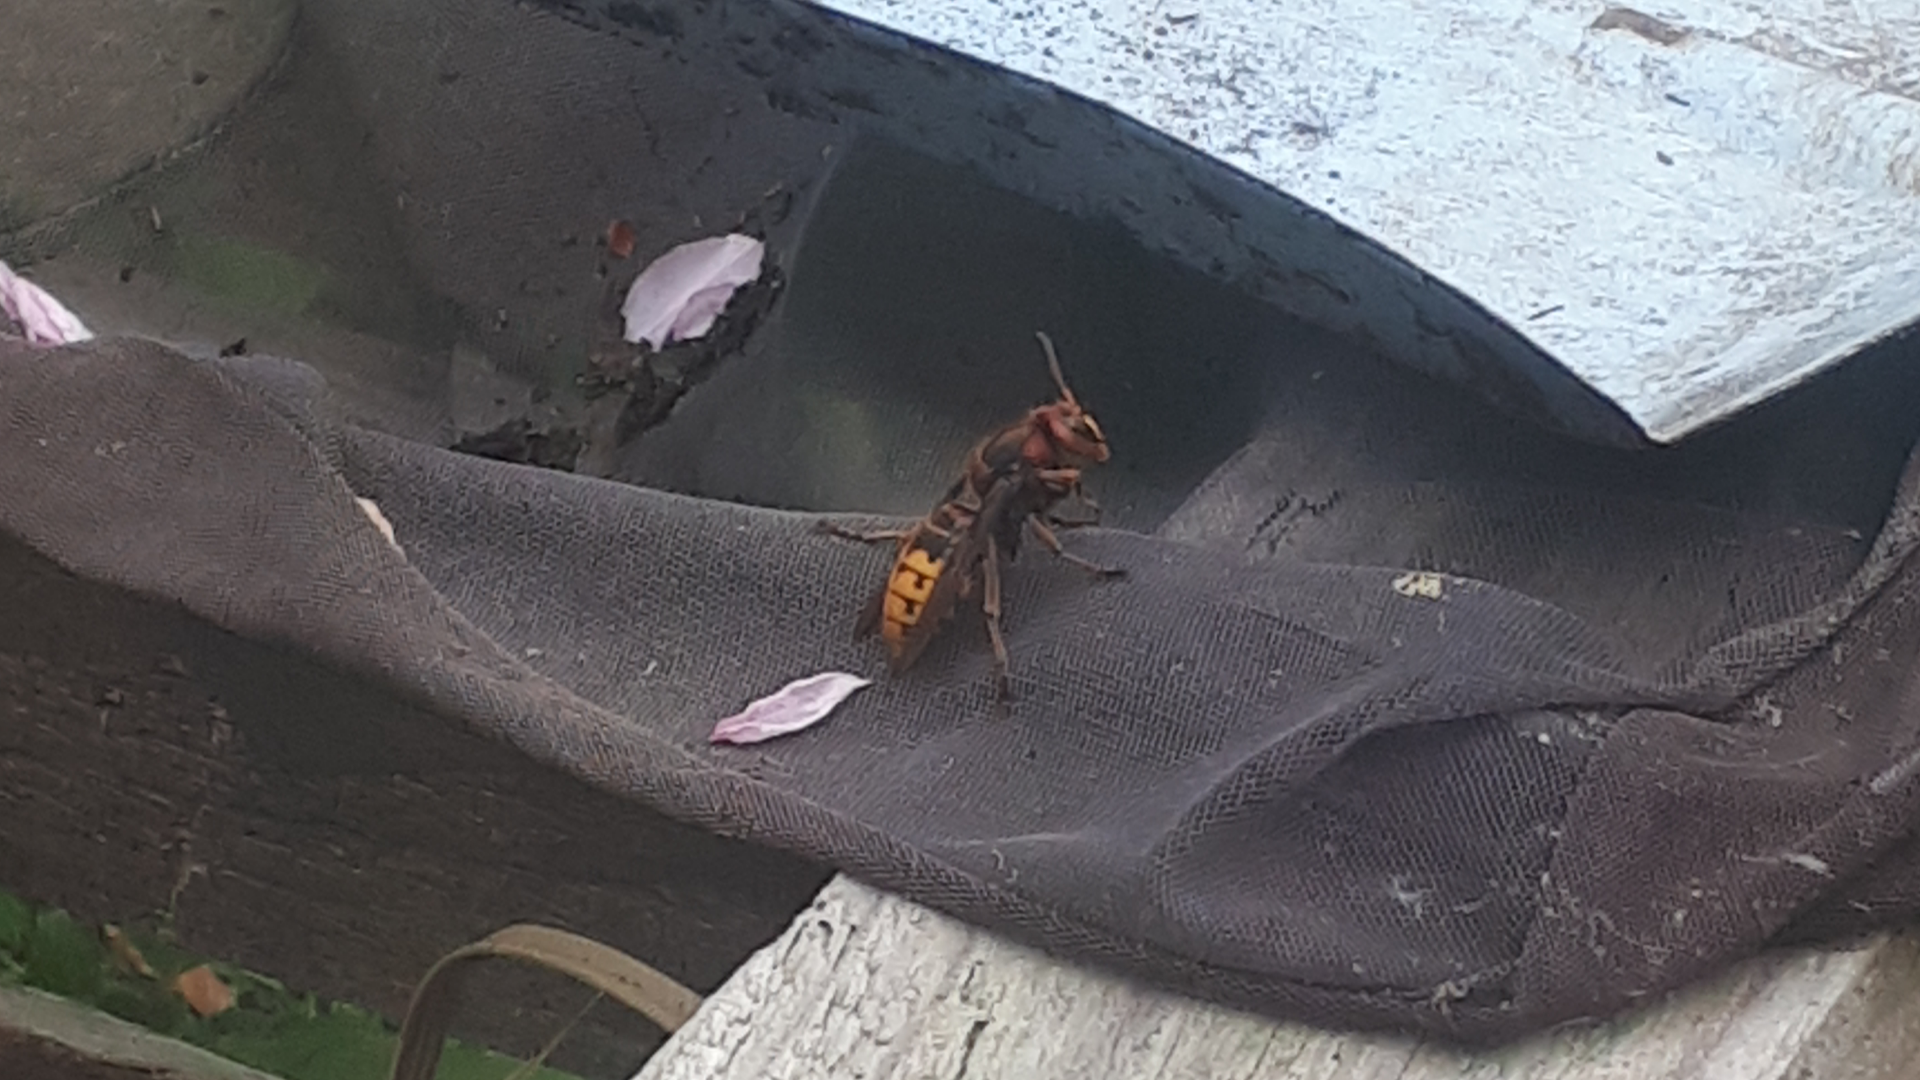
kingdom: Animalia
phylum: Arthropoda
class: Insecta
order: Hymenoptera
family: Vespidae
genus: Vespa
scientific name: Vespa crabro
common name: Hornet
